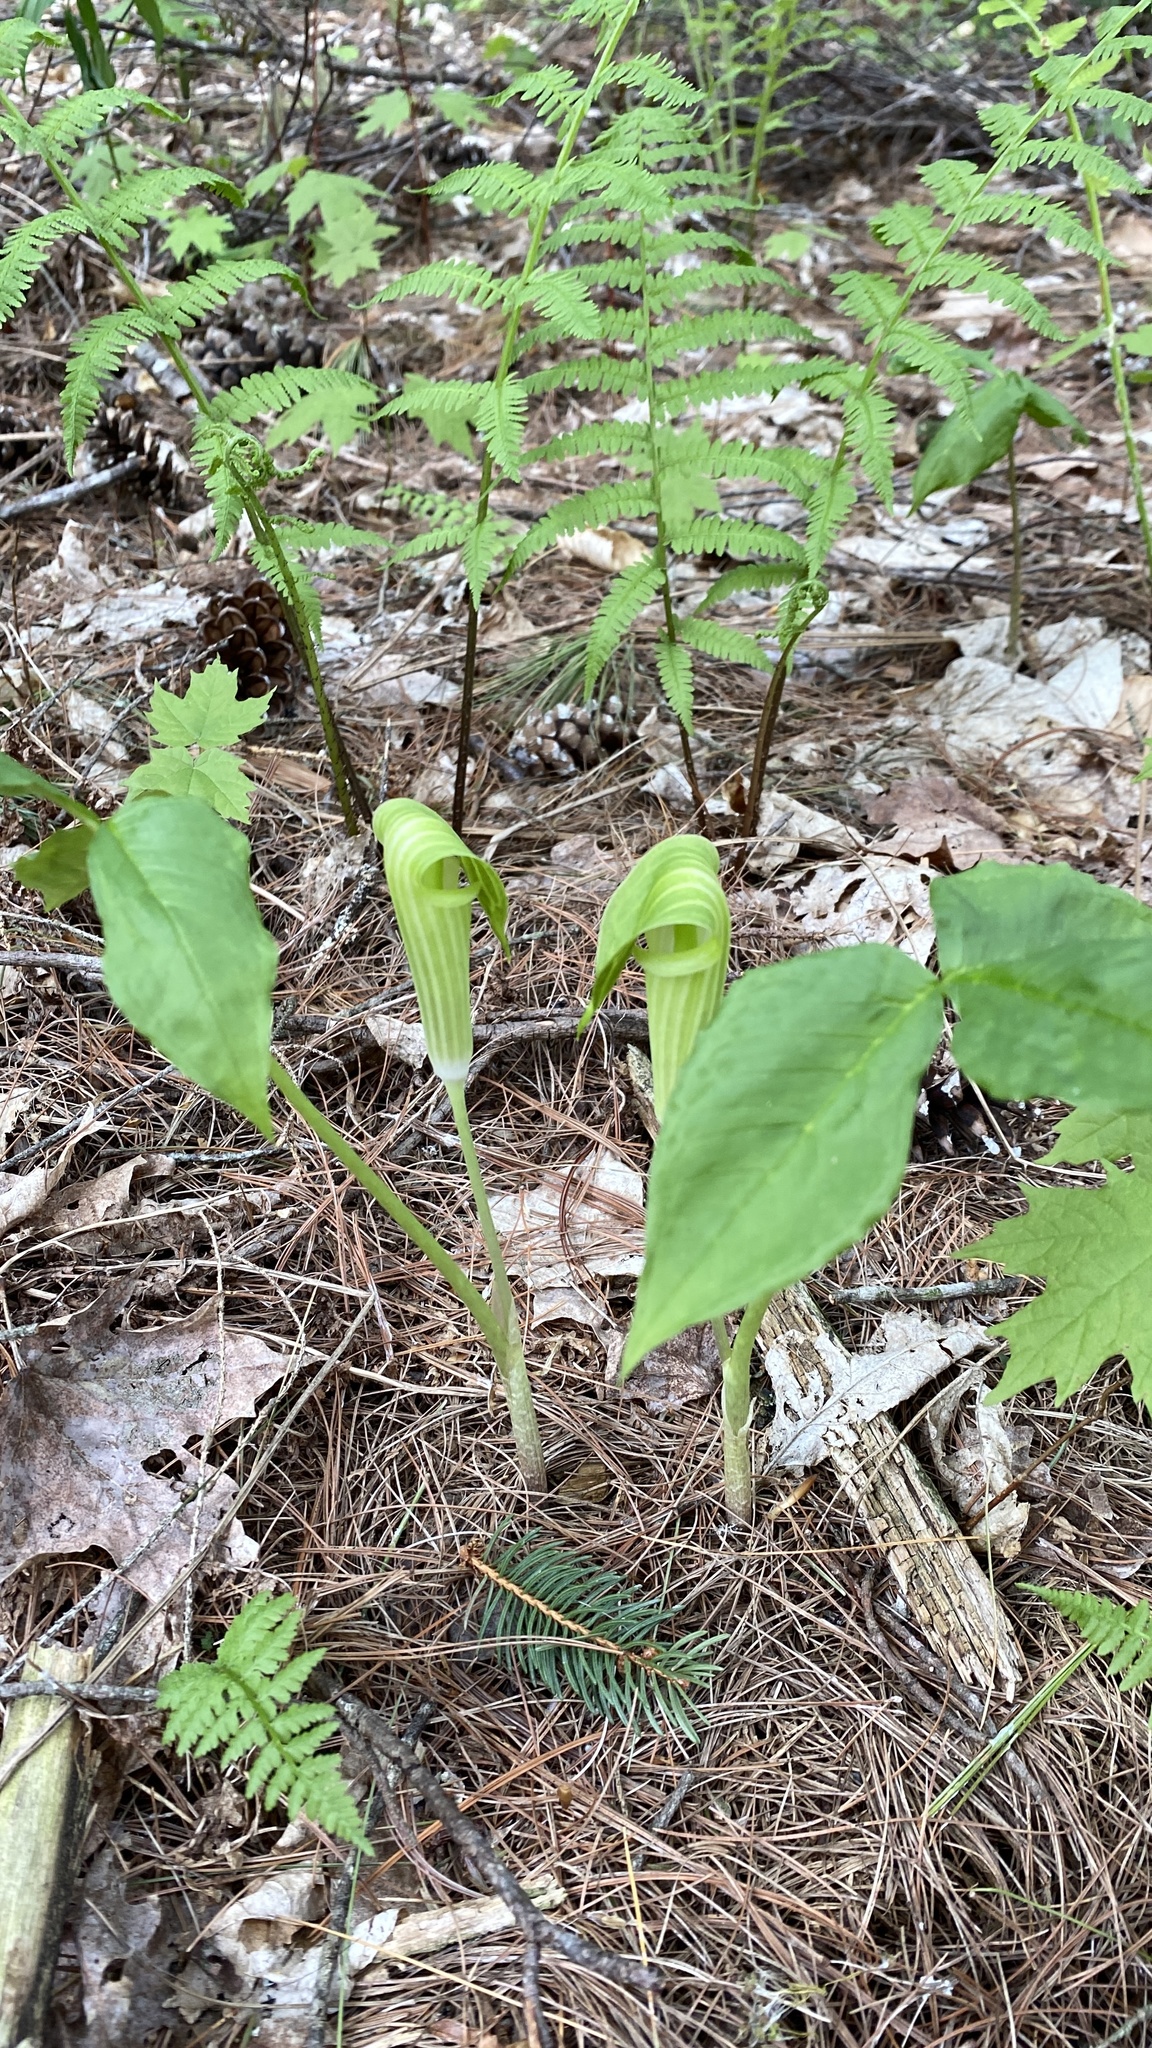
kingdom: Plantae
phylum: Tracheophyta
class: Liliopsida
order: Alismatales
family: Araceae
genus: Arisaema
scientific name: Arisaema triphyllum
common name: Jack-in-the-pulpit
